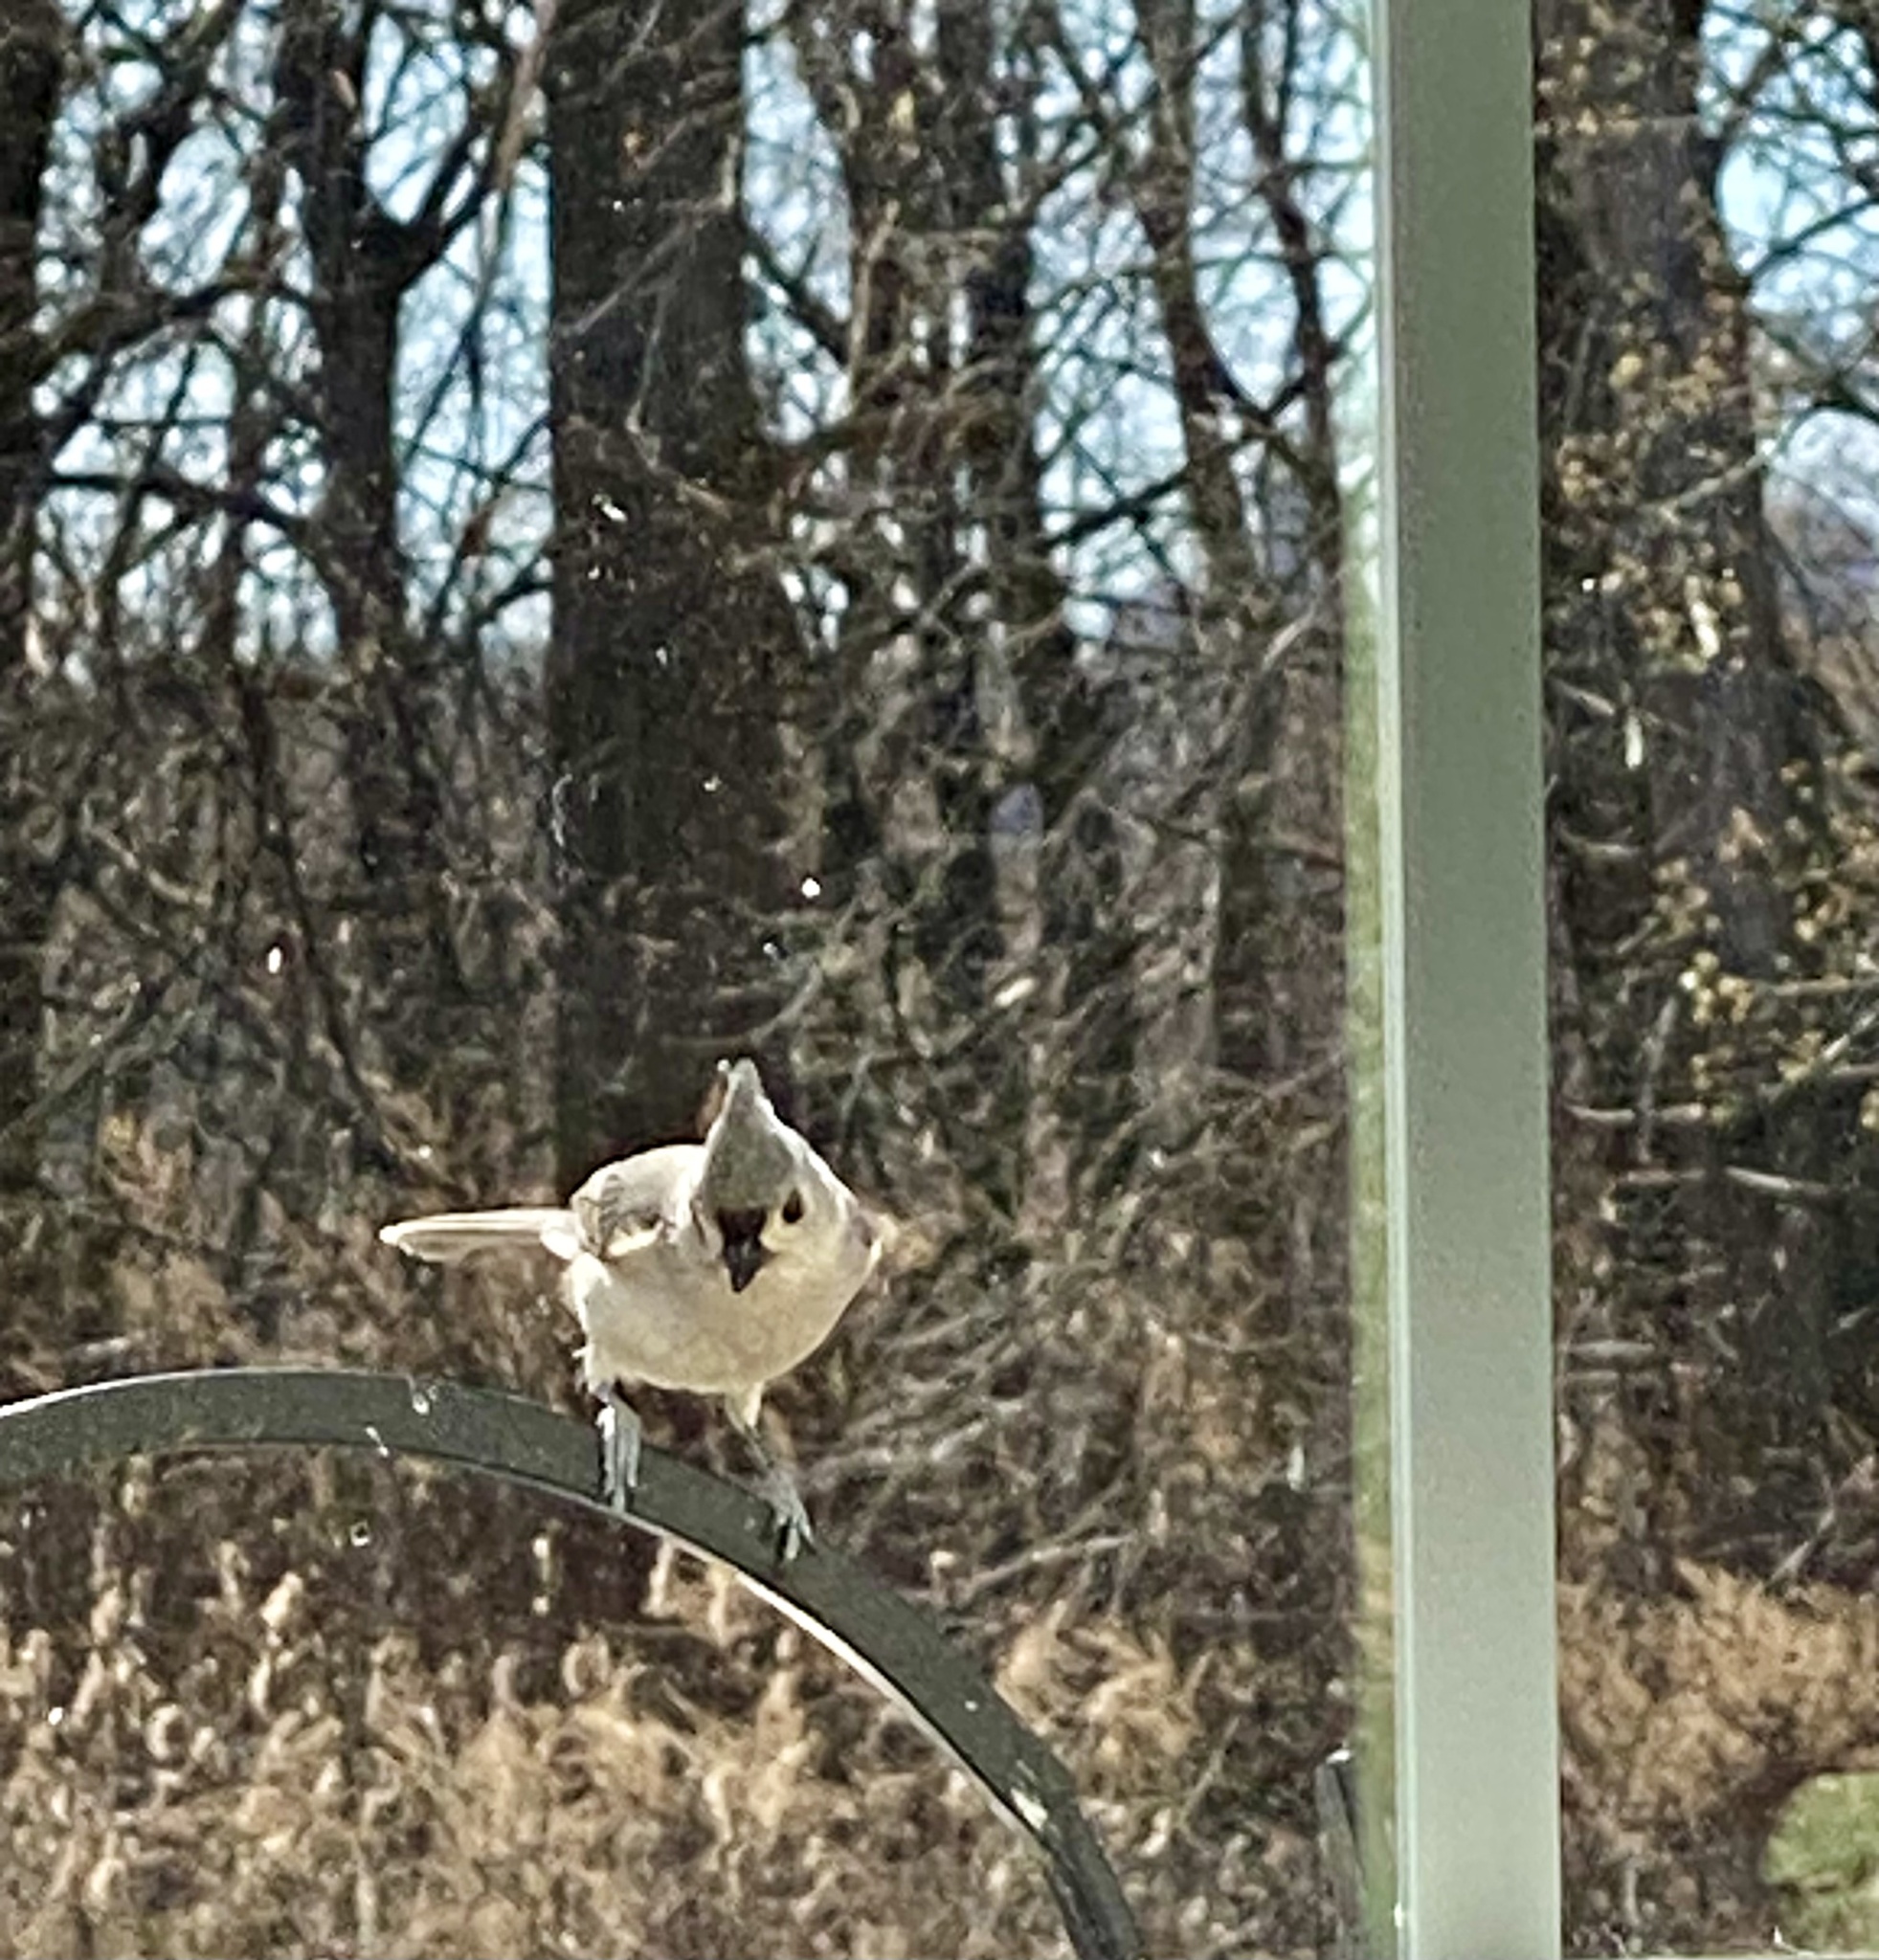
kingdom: Animalia
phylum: Chordata
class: Aves
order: Passeriformes
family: Paridae
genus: Baeolophus
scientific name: Baeolophus bicolor
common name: Tufted titmouse
